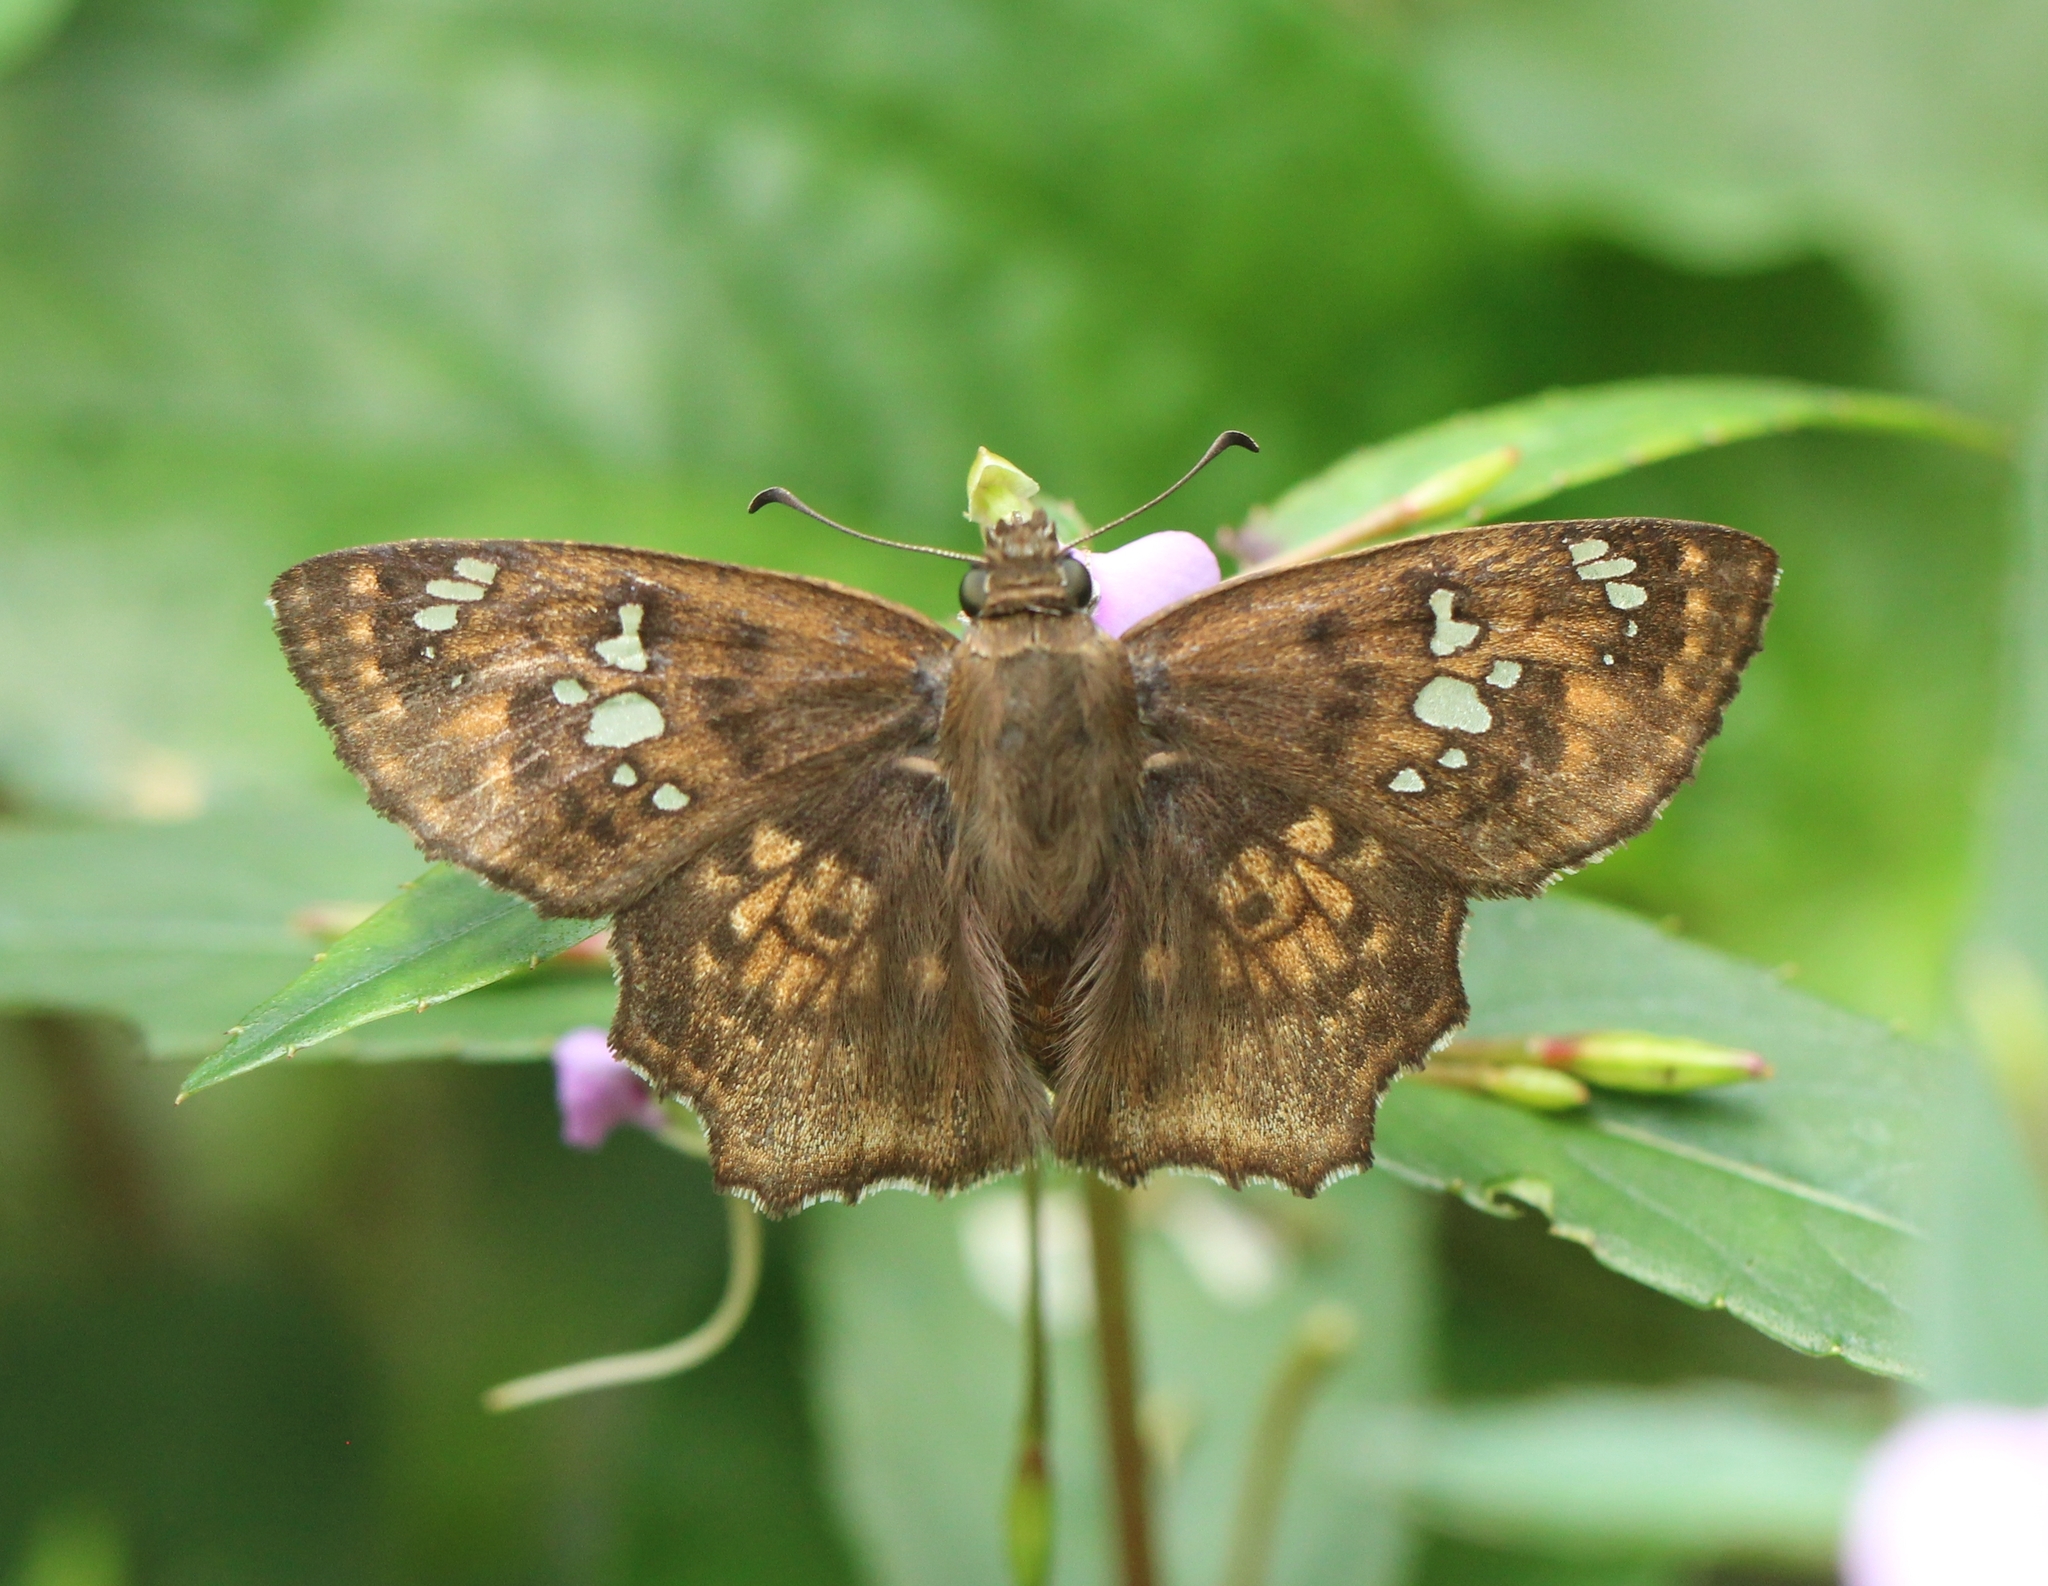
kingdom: Animalia
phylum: Arthropoda
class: Insecta
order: Lepidoptera
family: Hesperiidae
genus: Caprona
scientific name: Caprona ransonnettii
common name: Golden angle
